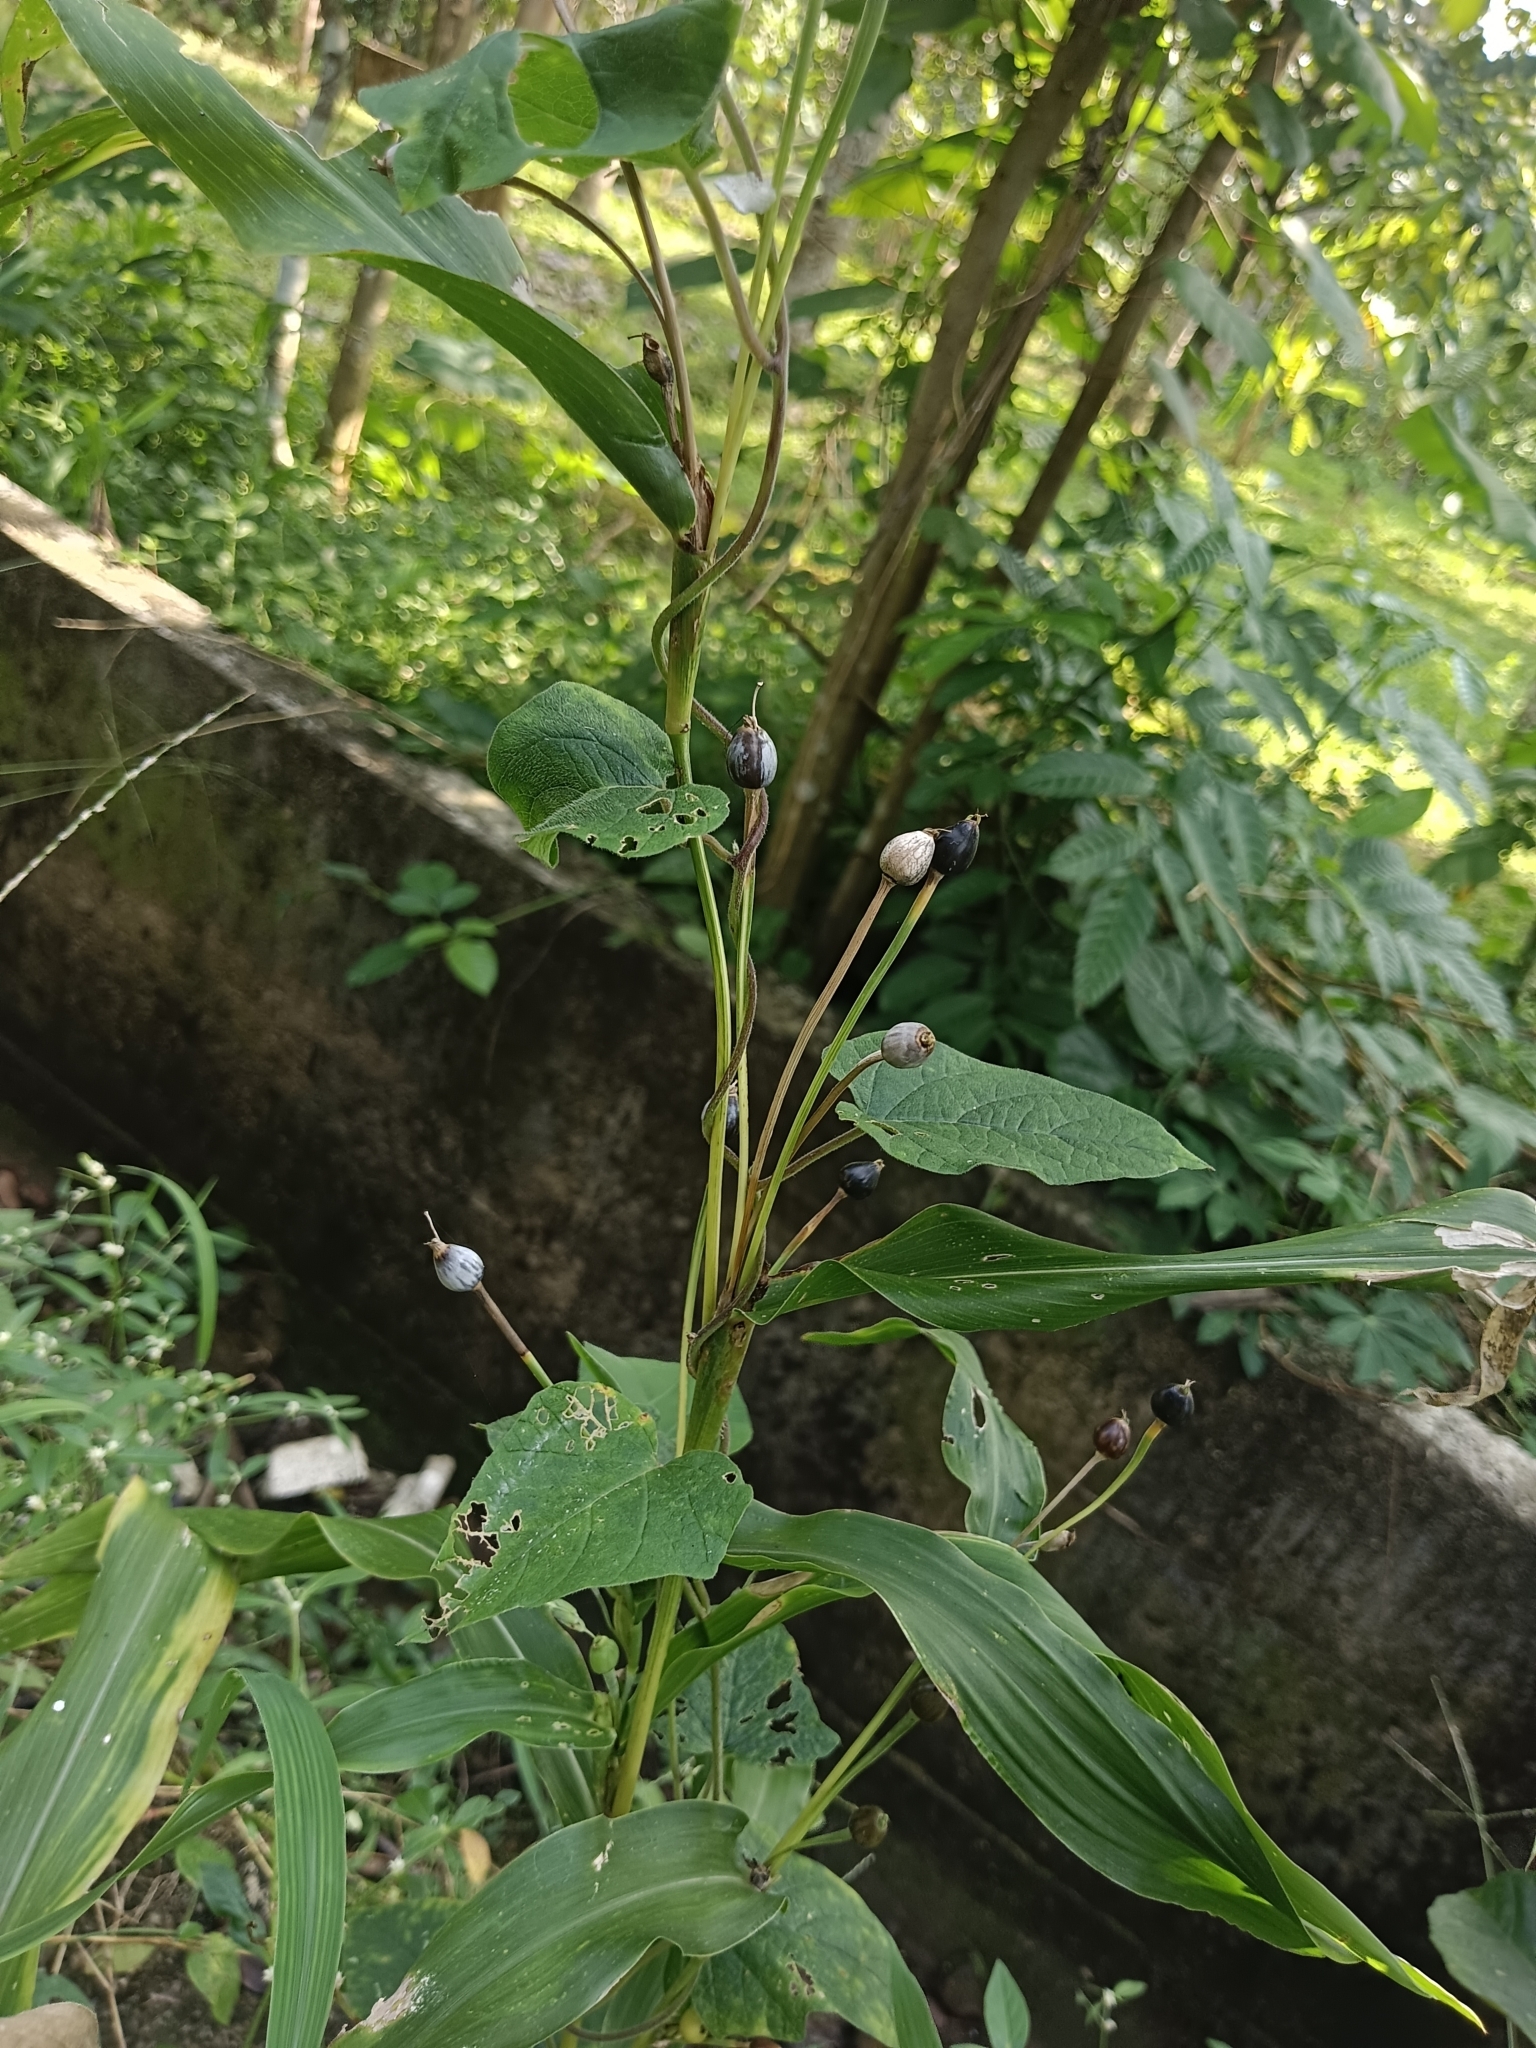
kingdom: Plantae
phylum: Tracheophyta
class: Liliopsida
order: Poales
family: Poaceae
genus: Coix
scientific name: Coix lacryma-jobi
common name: Job's tears
